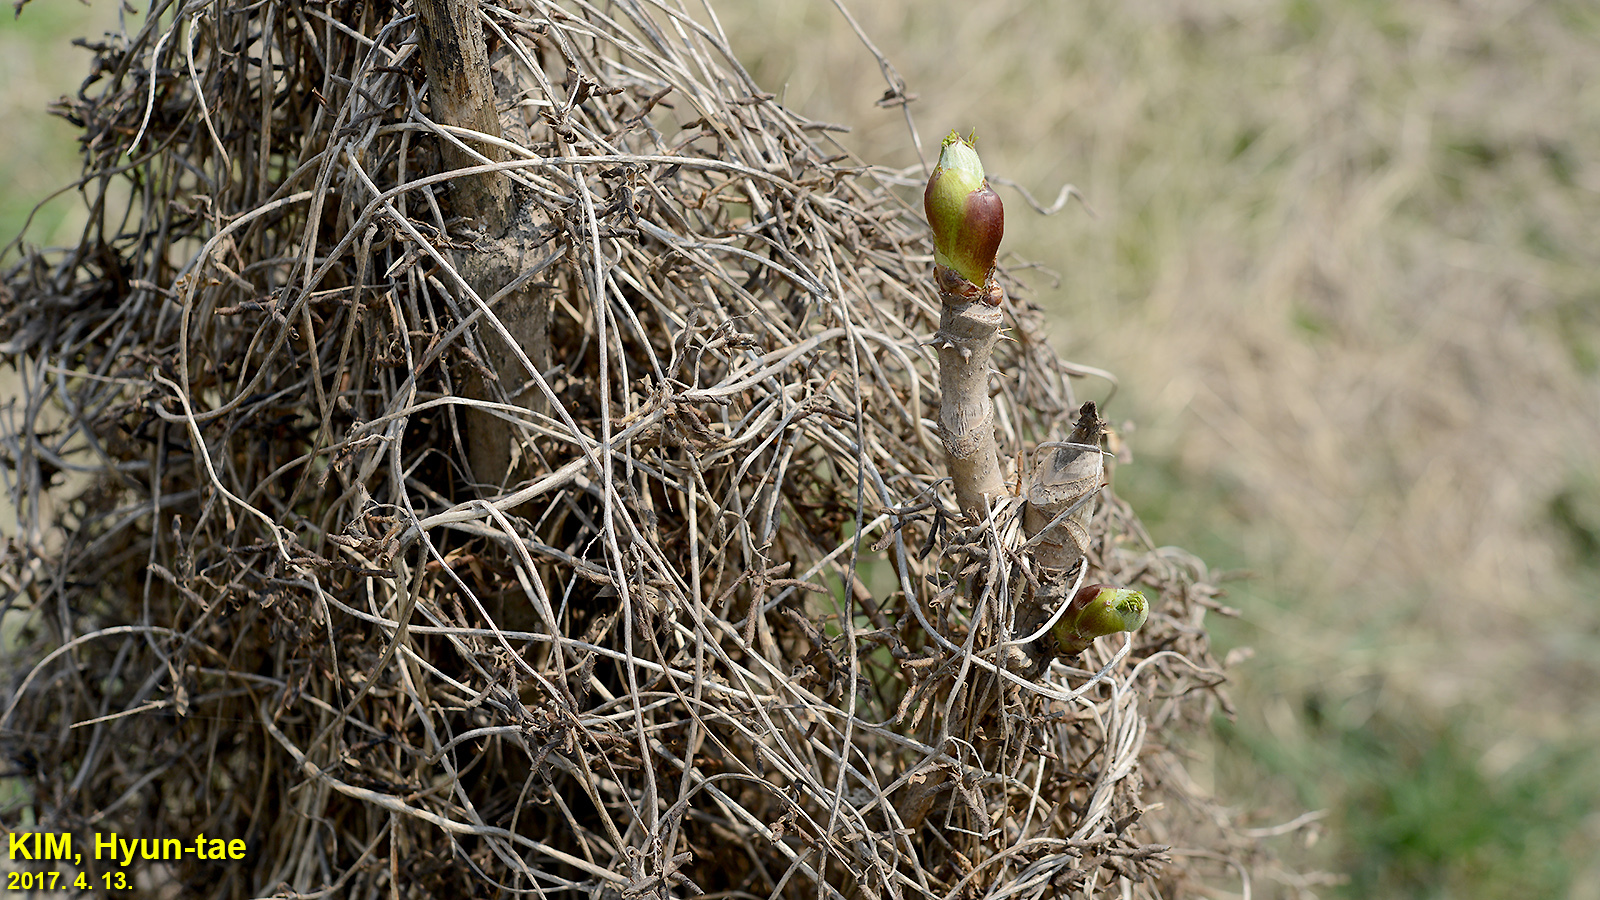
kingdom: Plantae
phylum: Tracheophyta
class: Magnoliopsida
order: Apiales
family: Araliaceae
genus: Aralia
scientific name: Aralia elata
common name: Japanese angelica-tree
